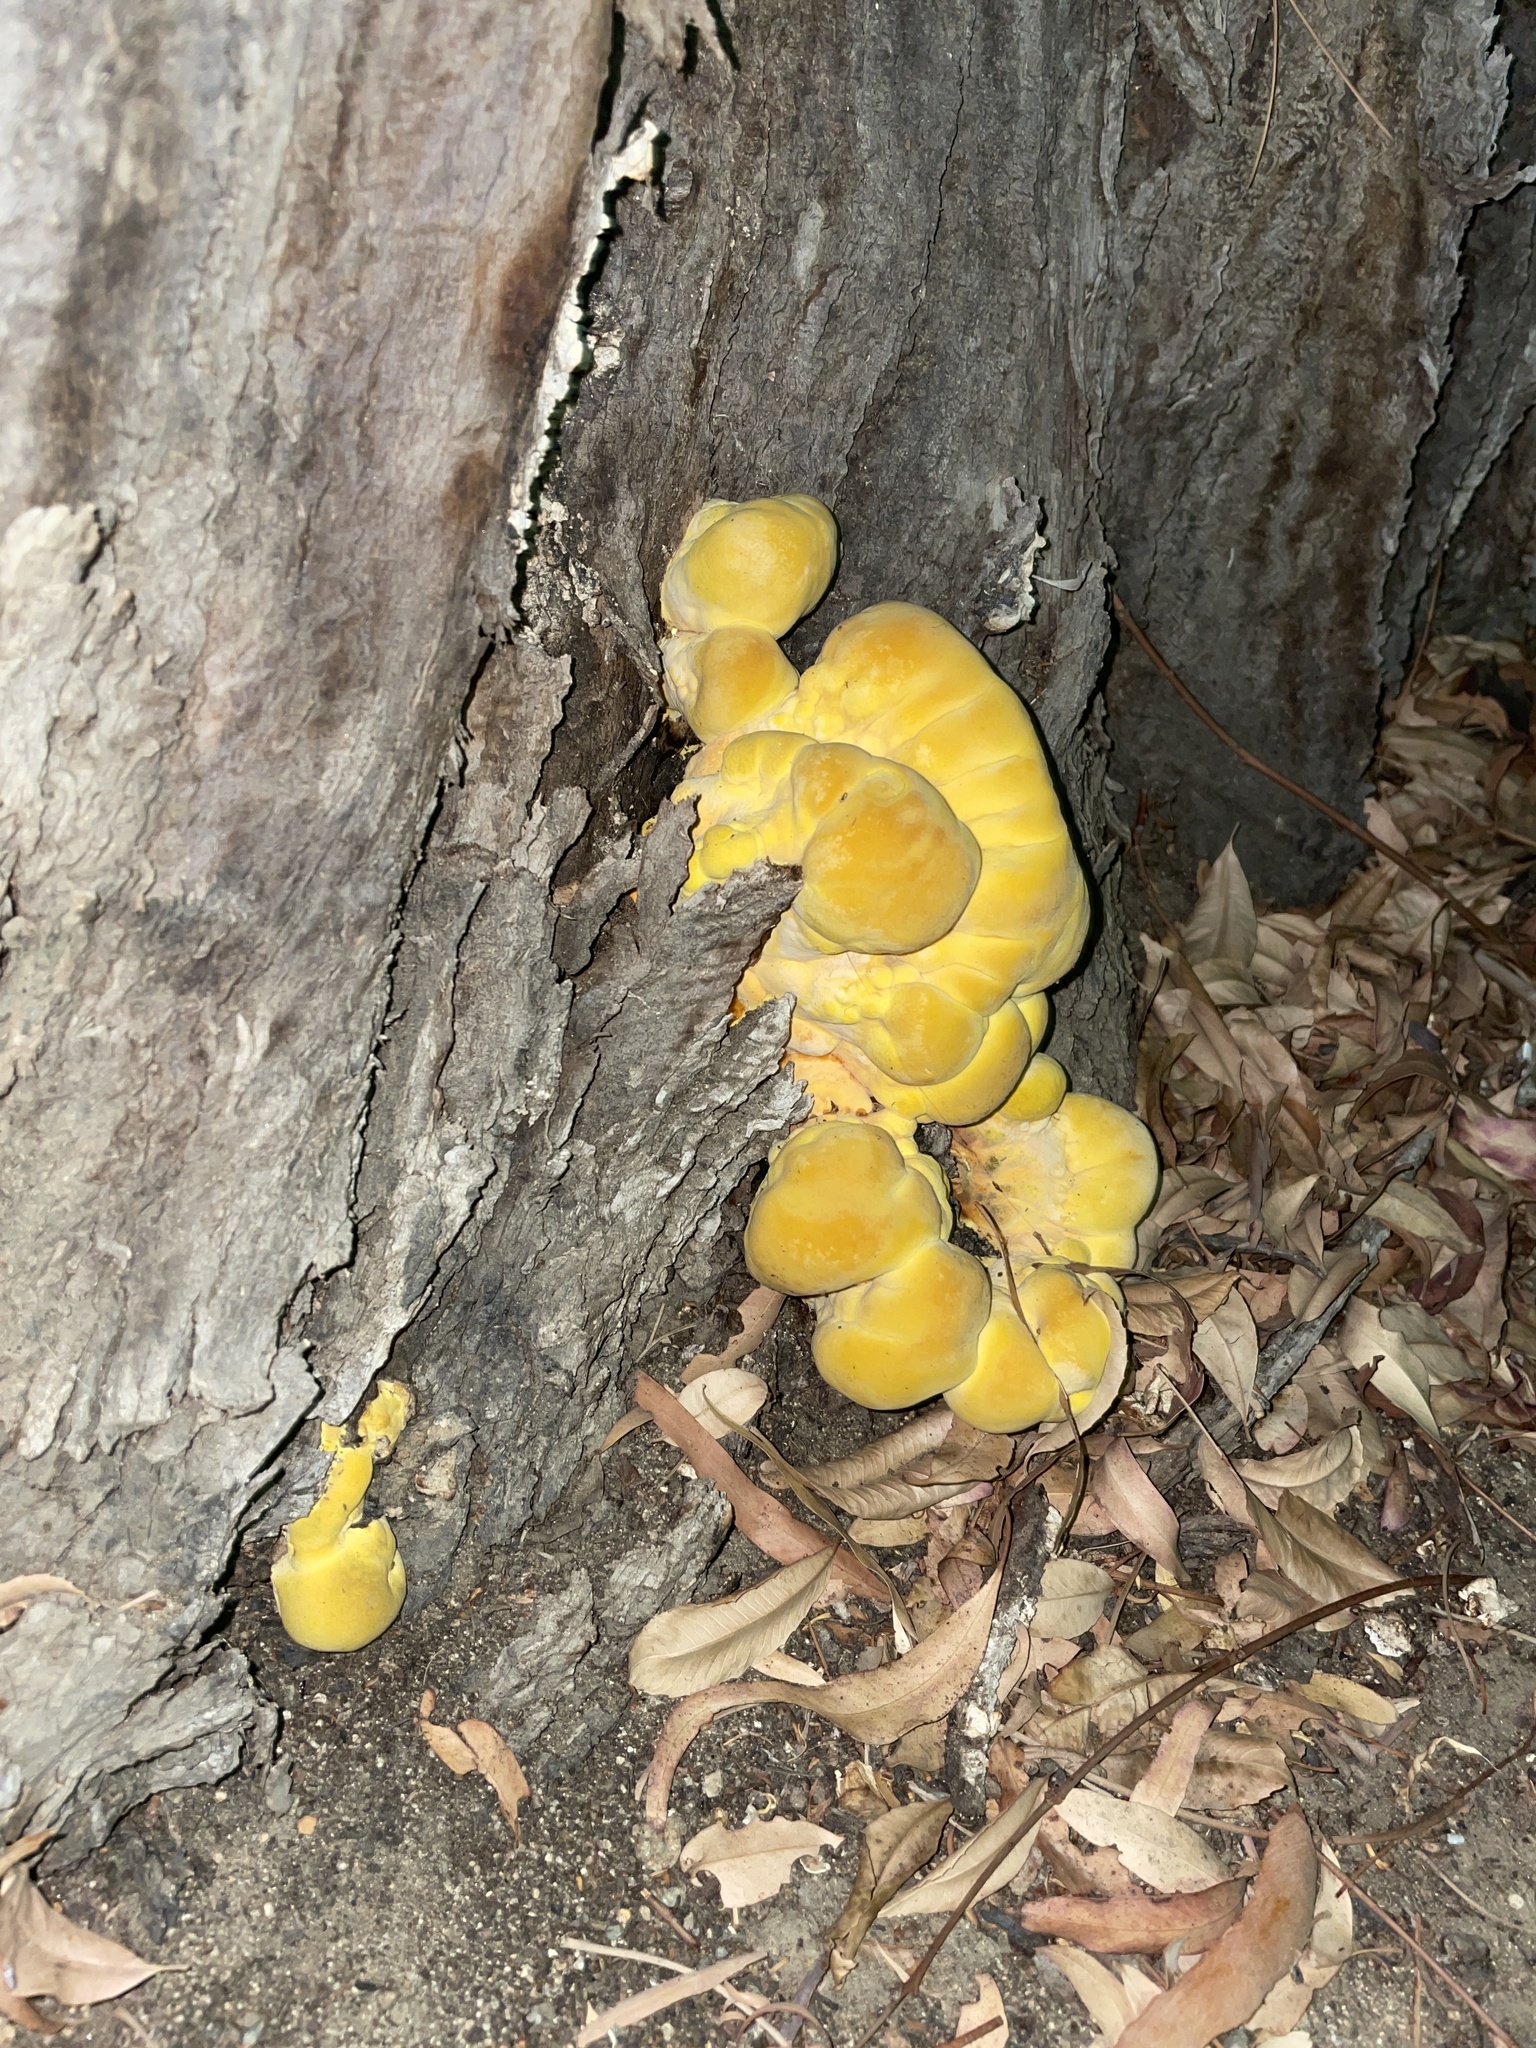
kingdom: Fungi
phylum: Basidiomycota
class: Agaricomycetes
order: Polyporales
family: Laetiporaceae
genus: Laetiporus
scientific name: Laetiporus gilbertsonii
